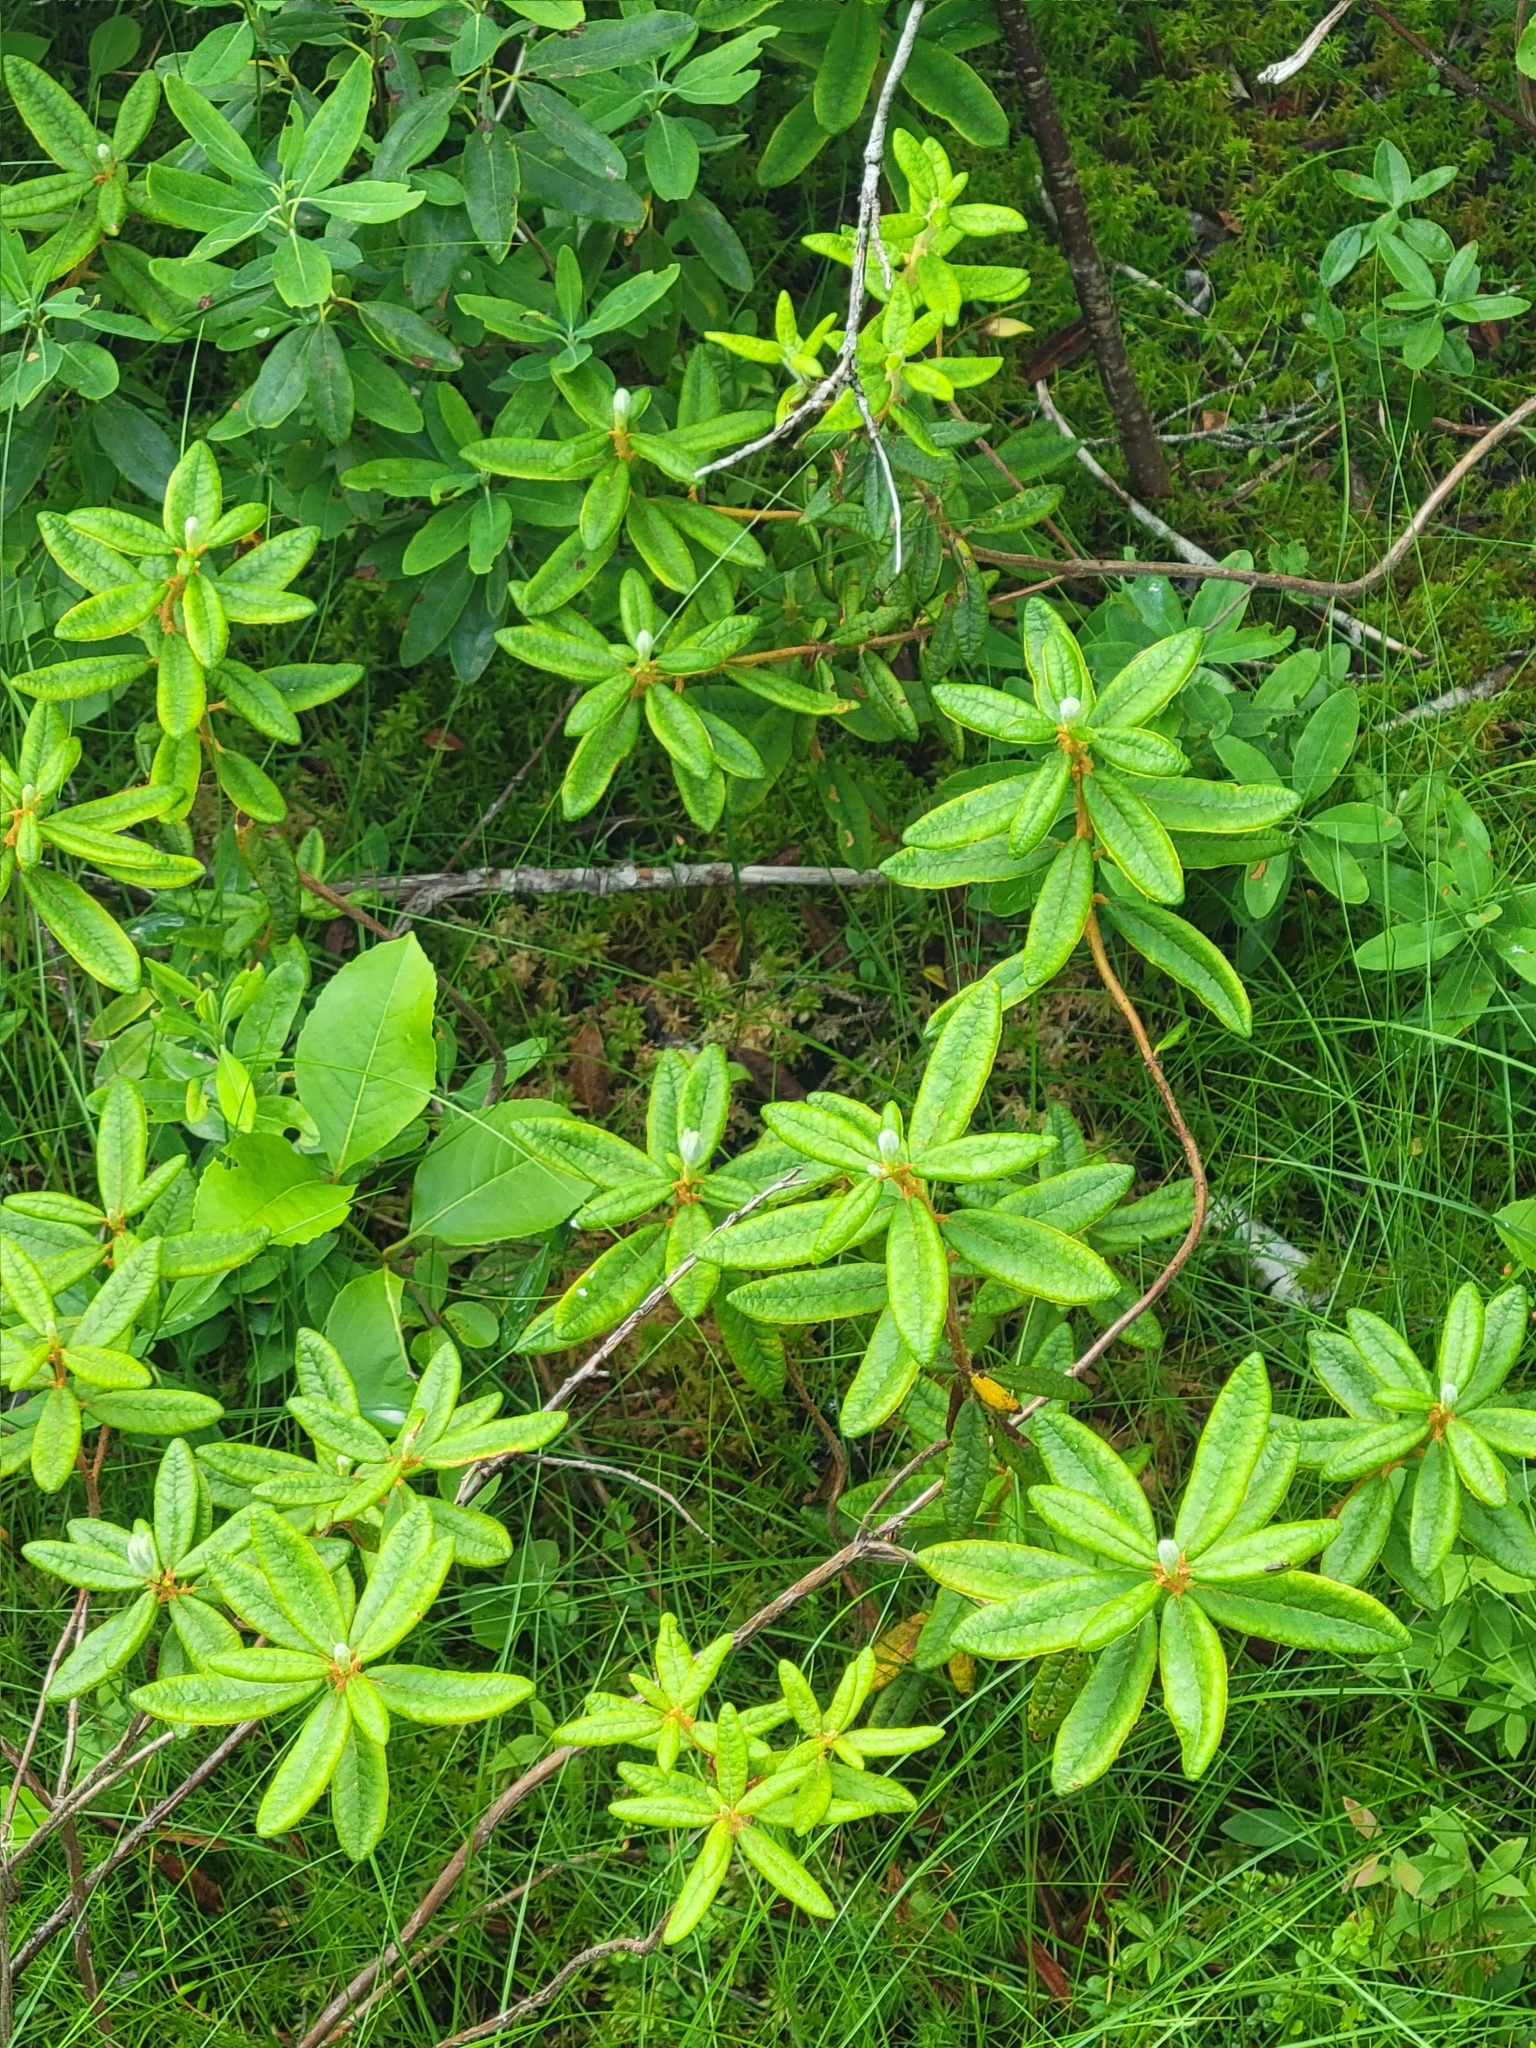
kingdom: Plantae
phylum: Tracheophyta
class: Magnoliopsida
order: Ericales
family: Ericaceae
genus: Rhododendron
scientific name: Rhododendron groenlandicum
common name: Bog labrador tea
